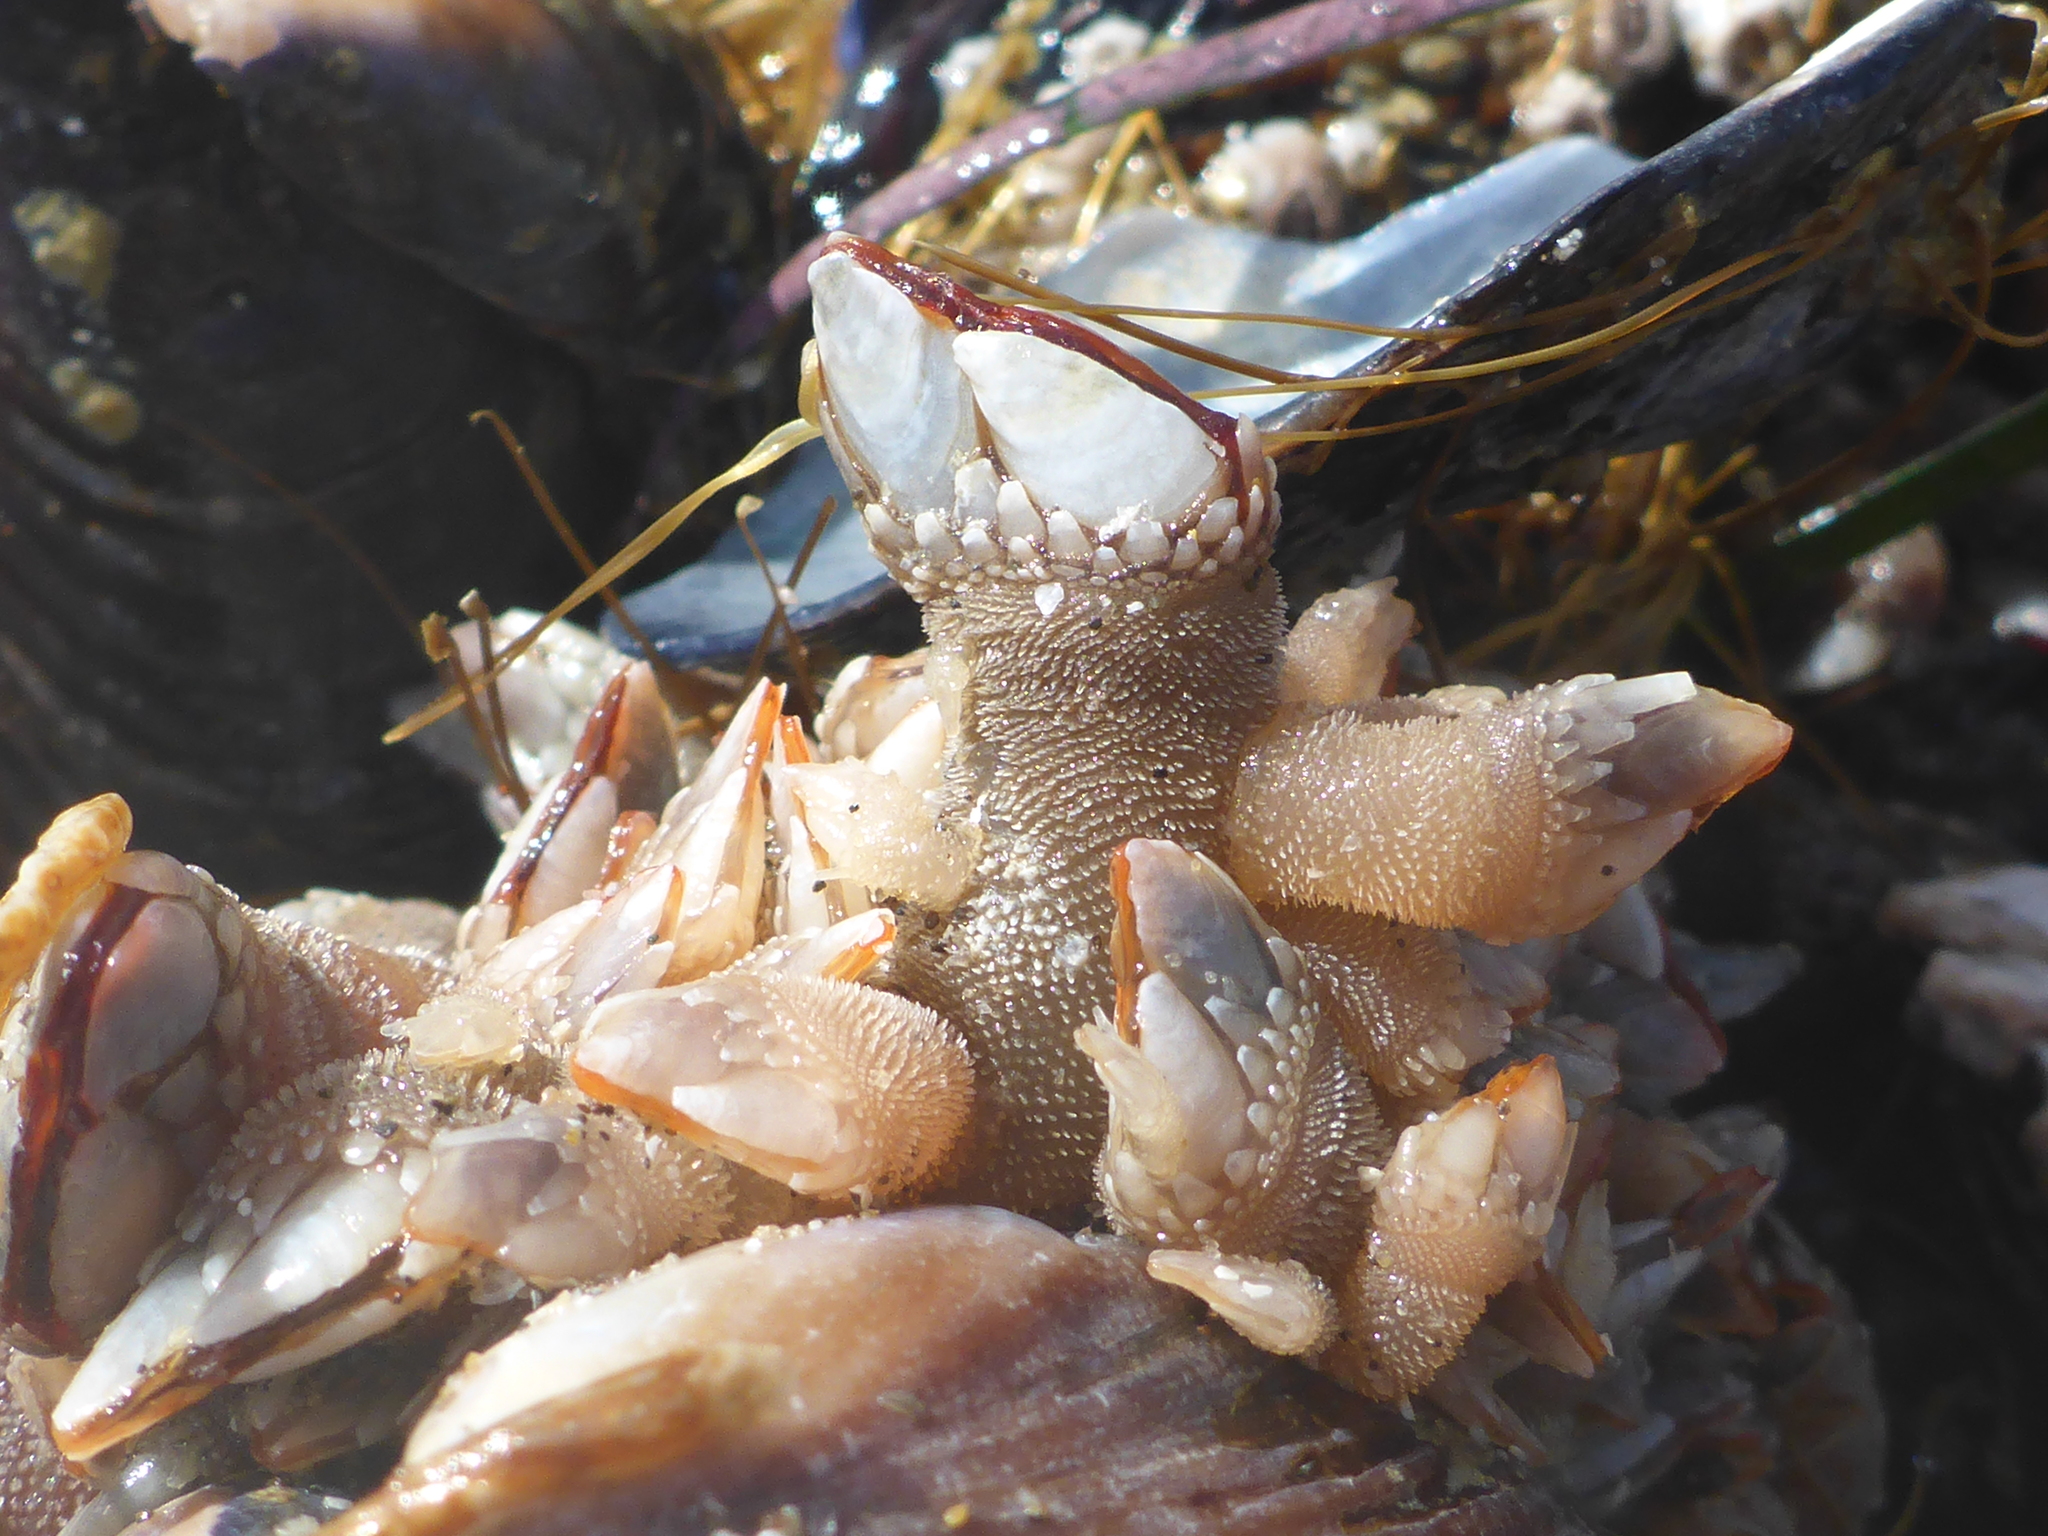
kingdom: Animalia
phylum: Arthropoda
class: Maxillopoda
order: Pedunculata
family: Pollicipedidae
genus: Pollicipes
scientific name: Pollicipes polymerus
